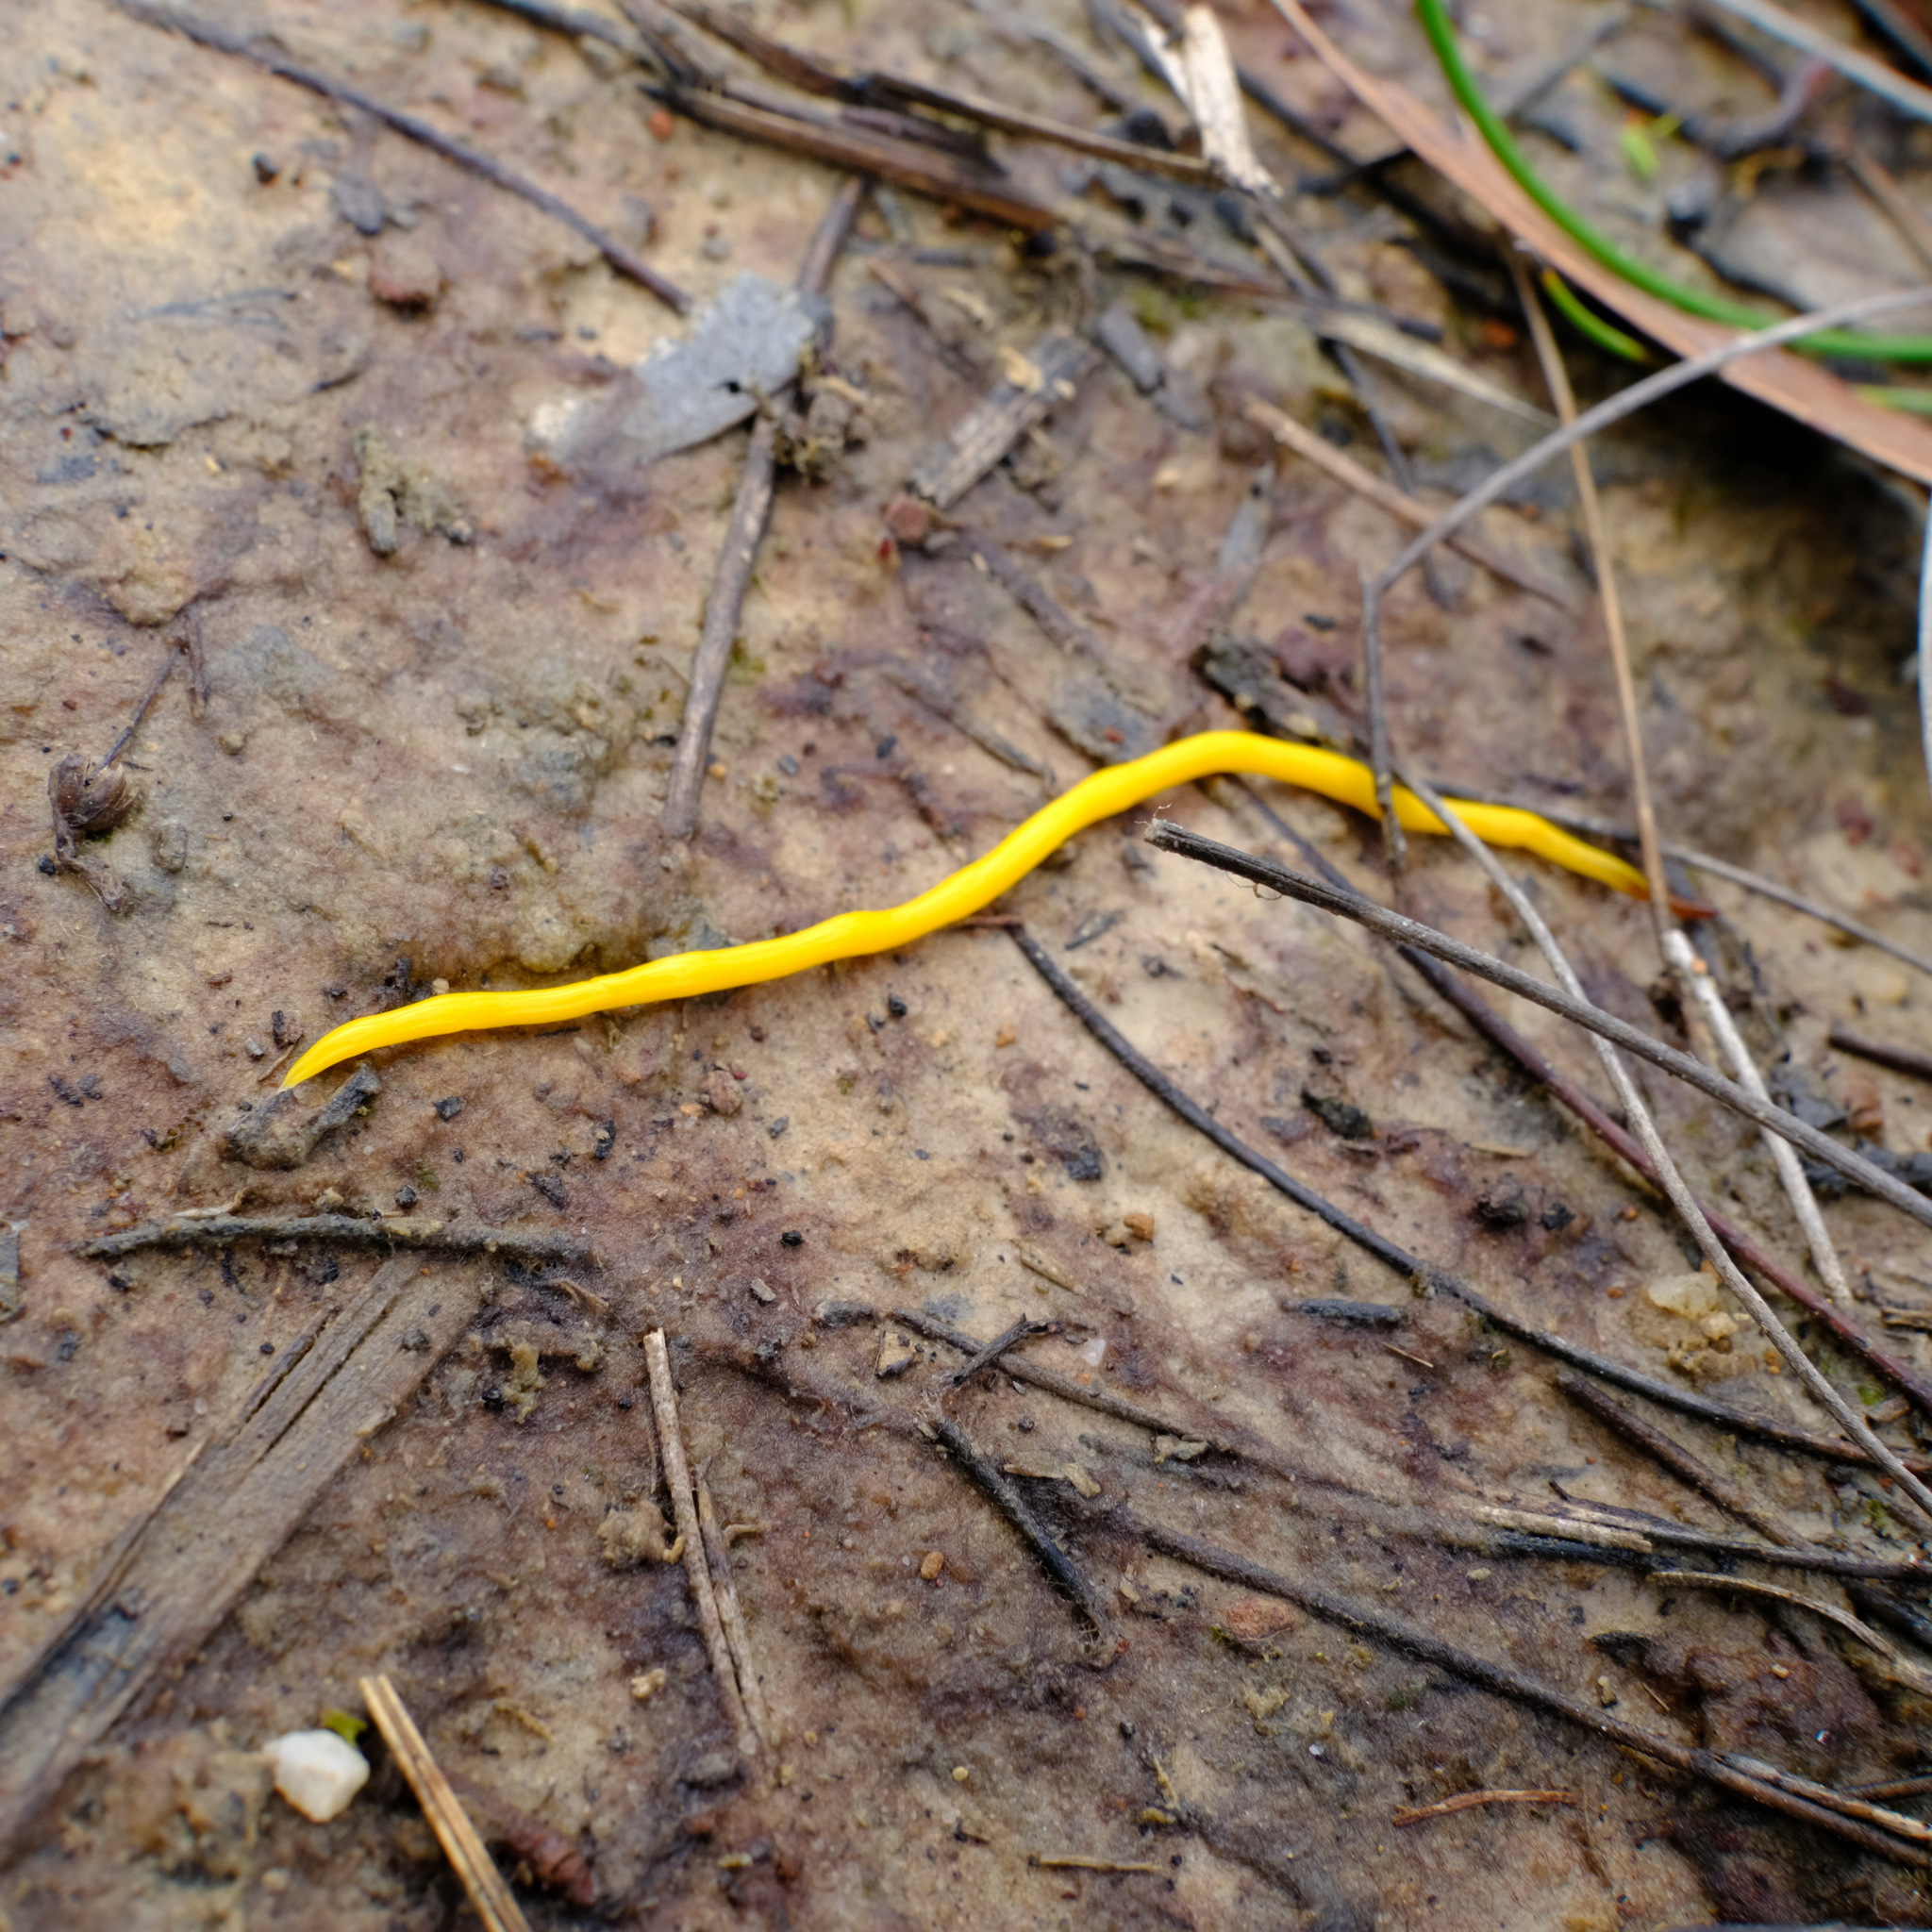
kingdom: Animalia
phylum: Platyhelminthes
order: Tricladida
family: Geoplanidae
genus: Fletchamia
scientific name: Fletchamia sugdeni
